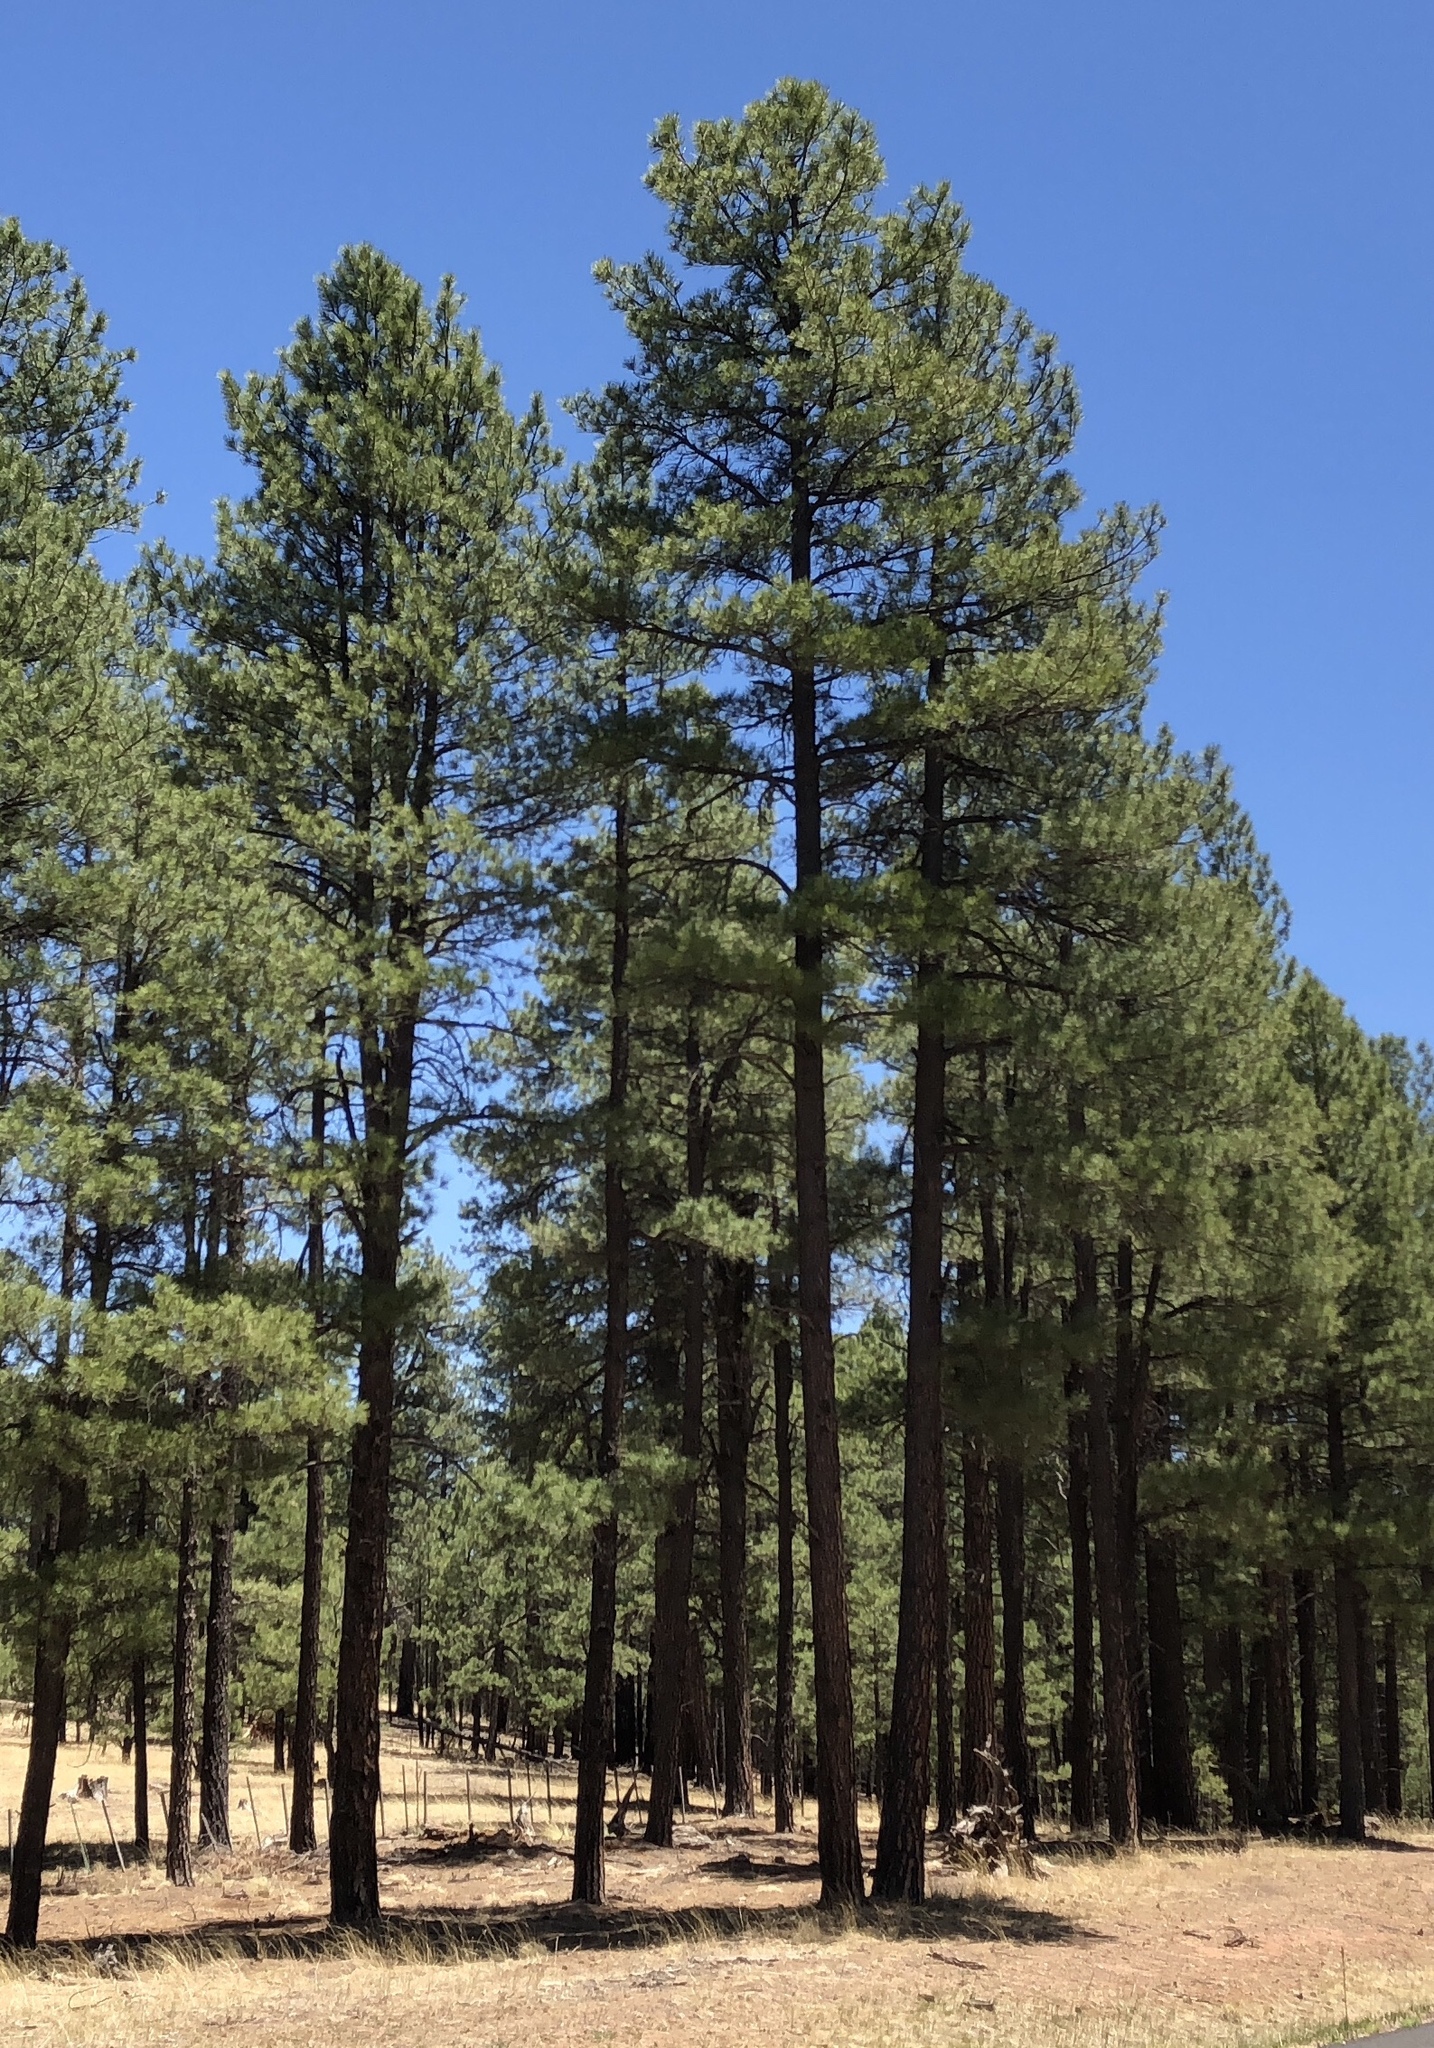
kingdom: Plantae
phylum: Tracheophyta
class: Pinopsida
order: Pinales
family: Pinaceae
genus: Pinus
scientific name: Pinus ponderosa
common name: Western yellow-pine
